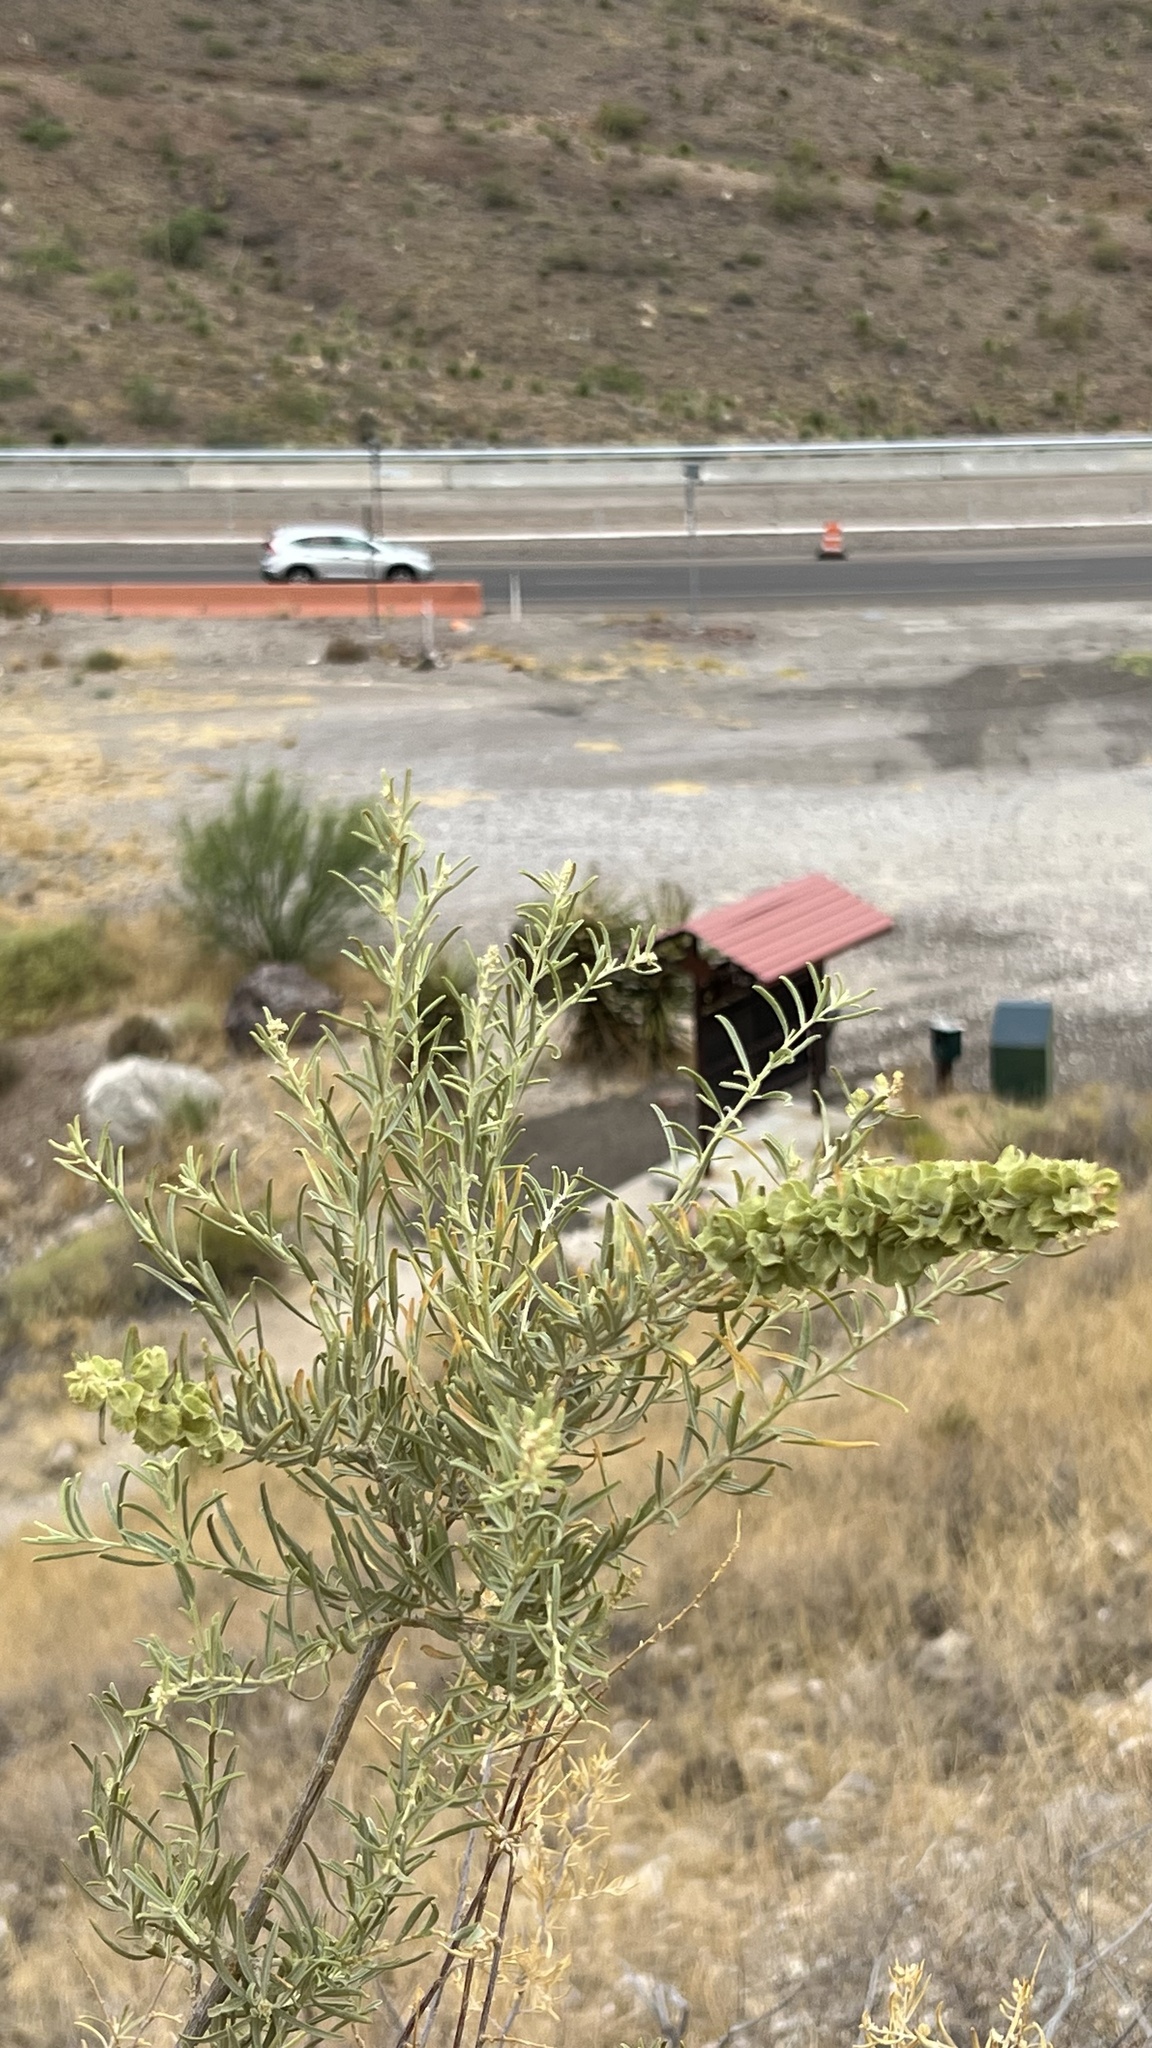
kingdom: Plantae
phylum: Tracheophyta
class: Magnoliopsida
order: Caryophyllales
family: Amaranthaceae
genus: Atriplex
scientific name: Atriplex canescens
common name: Four-wing saltbush
